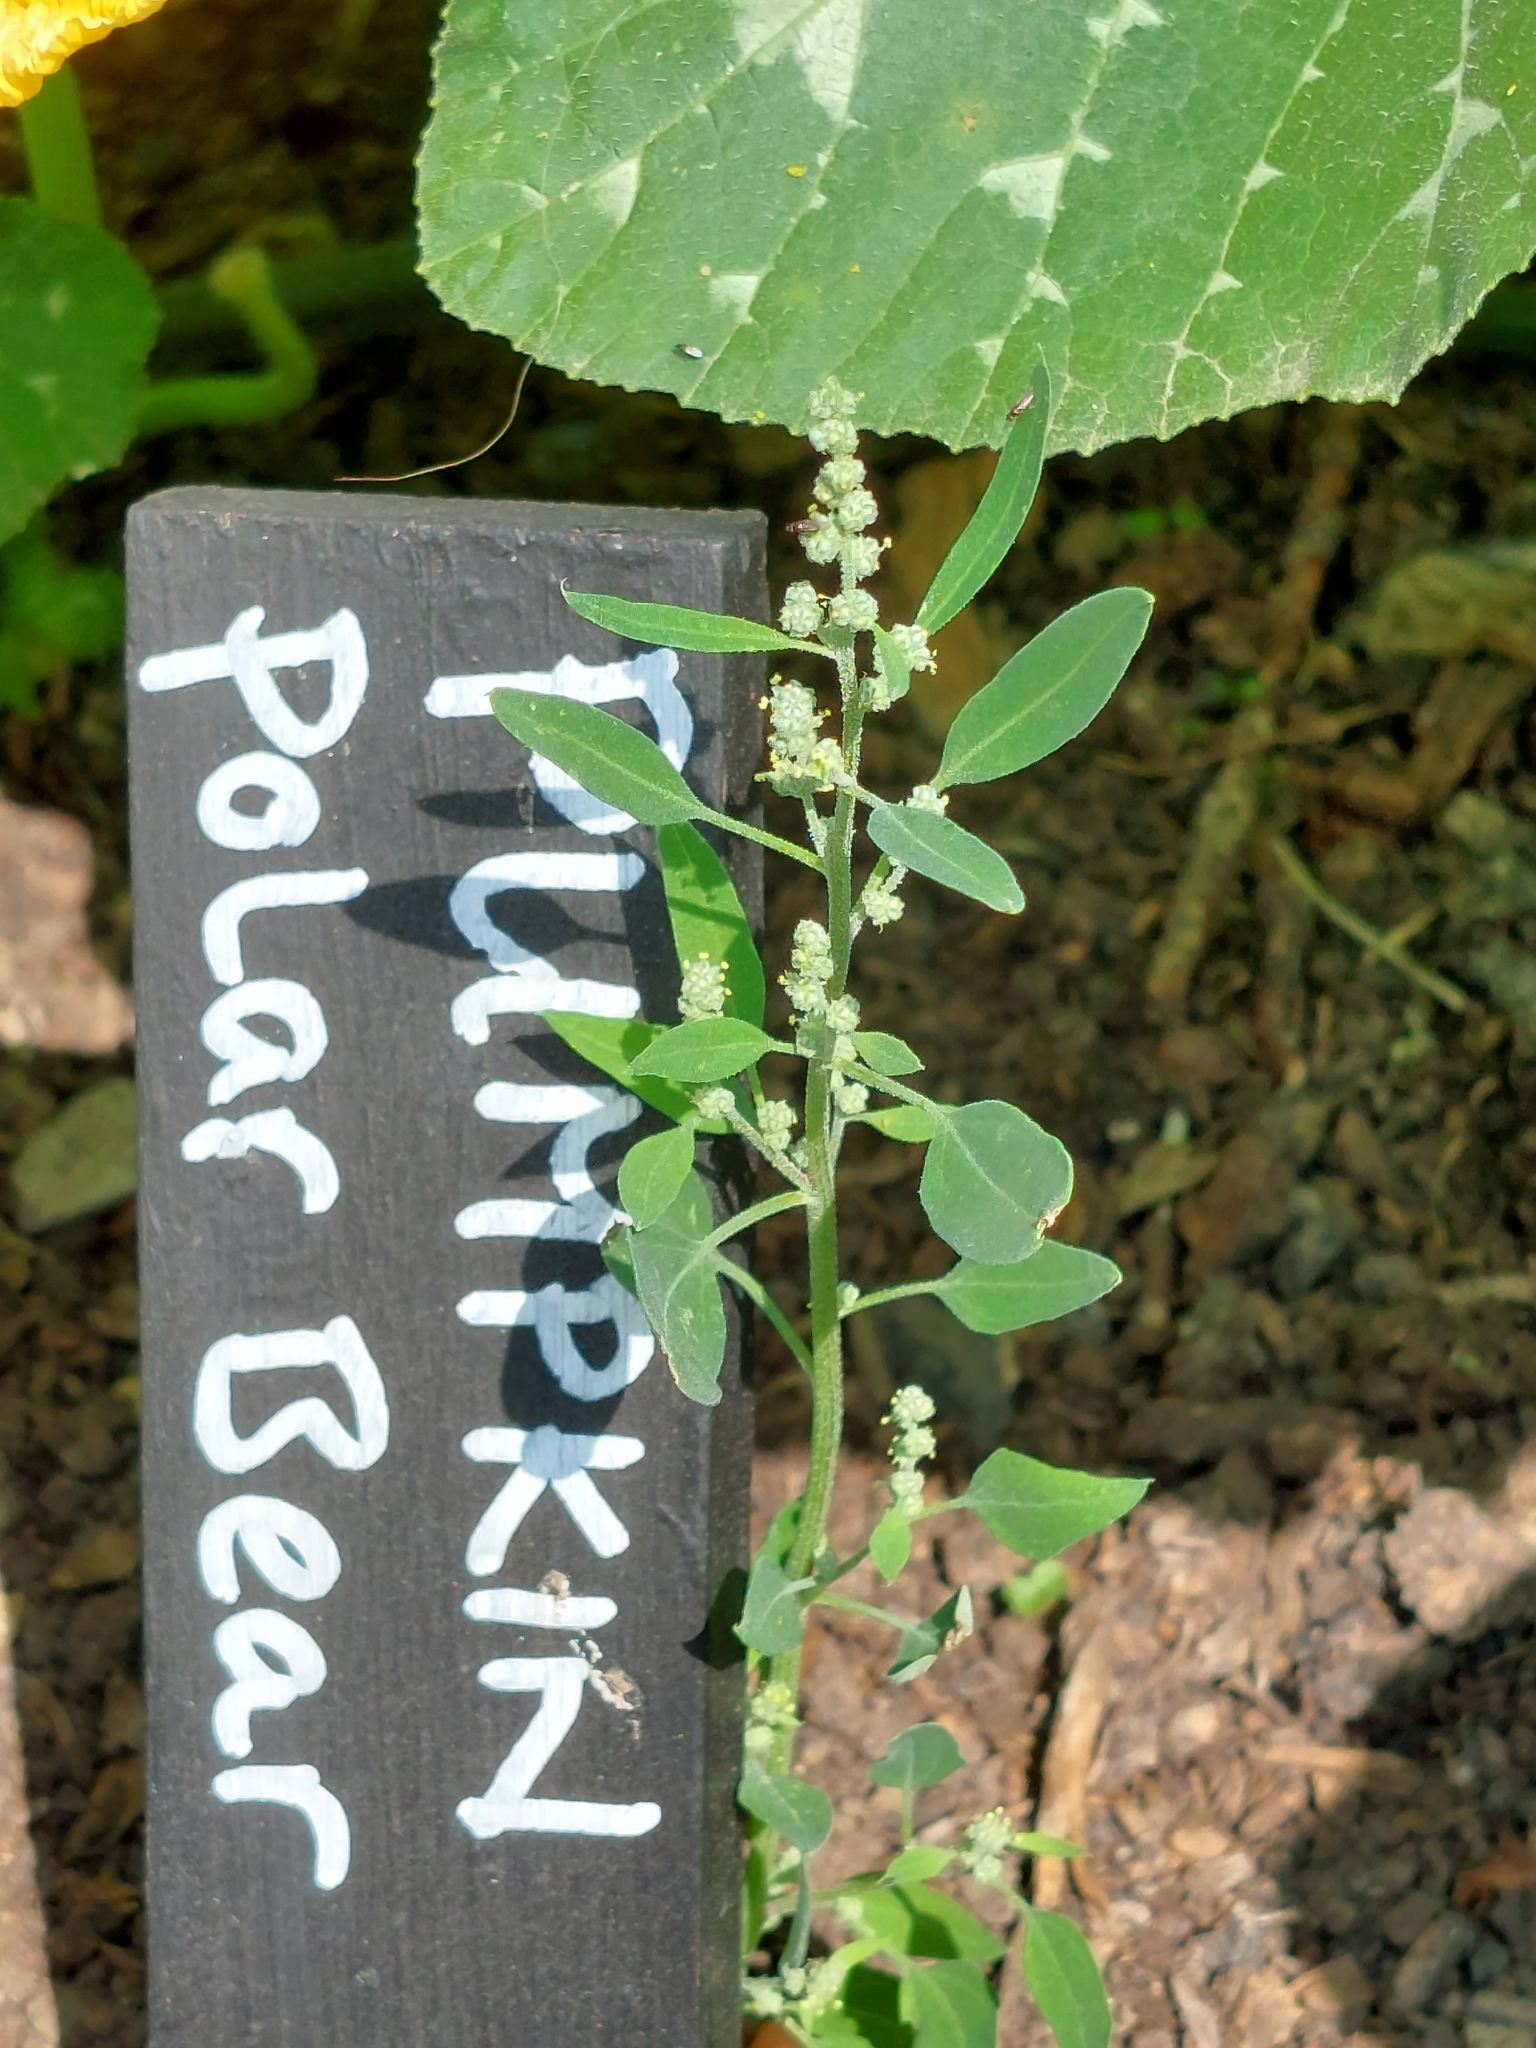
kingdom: Plantae
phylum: Tracheophyta
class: Magnoliopsida
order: Caryophyllales
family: Amaranthaceae
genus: Chenopodium
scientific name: Chenopodium album
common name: Fat-hen
